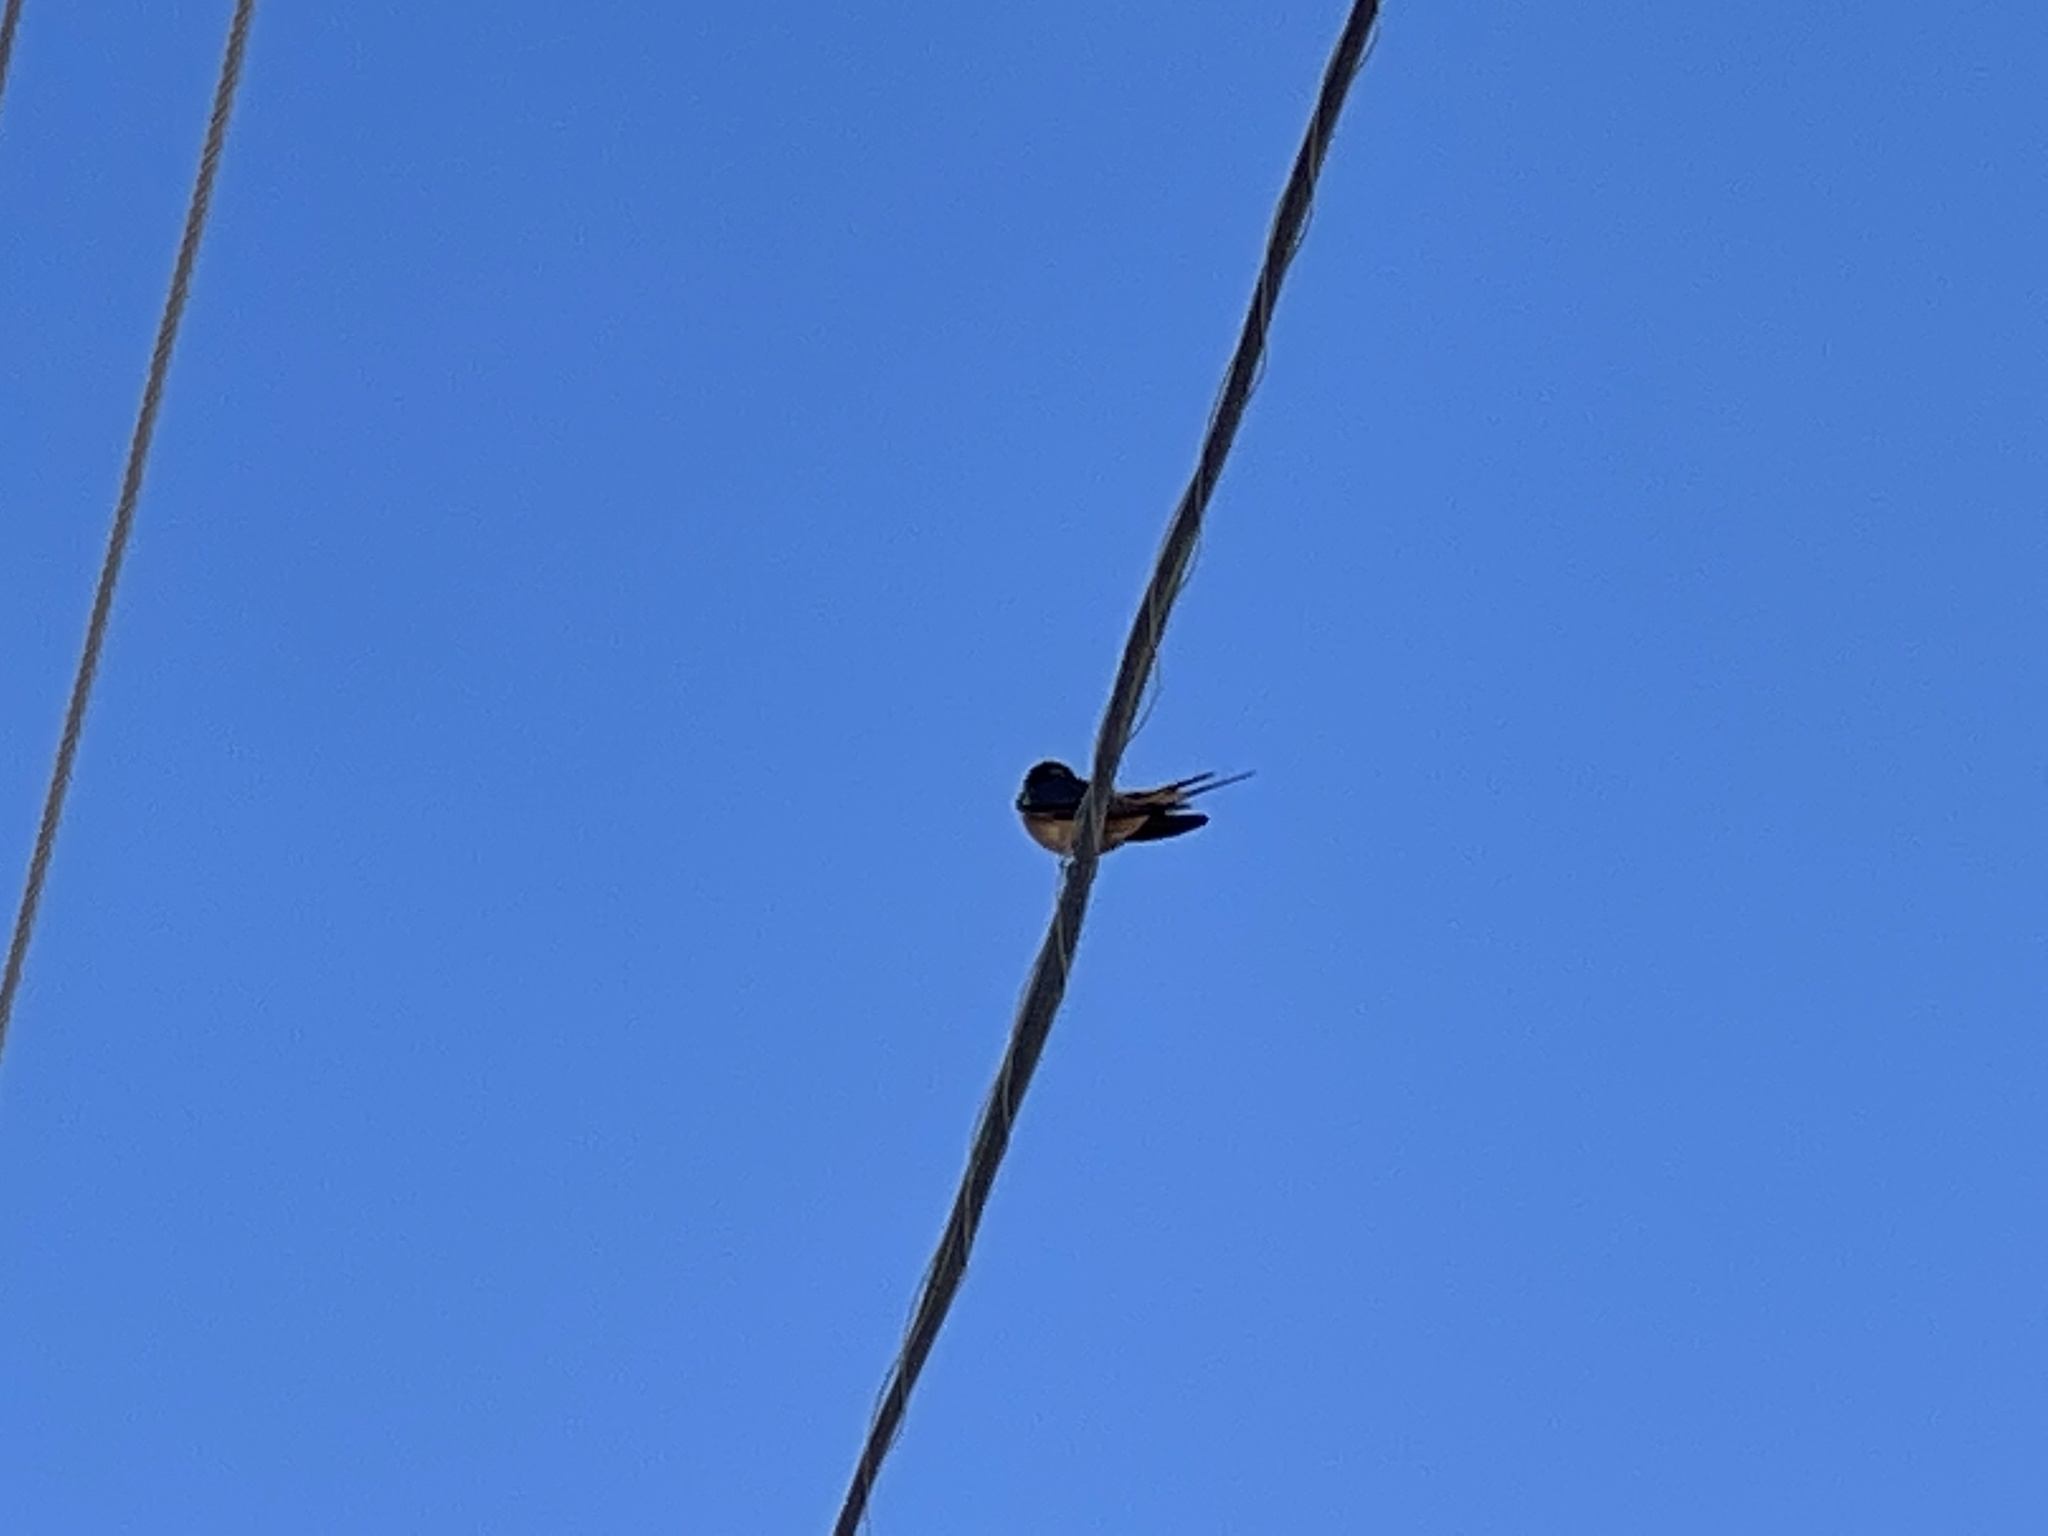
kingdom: Animalia
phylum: Chordata
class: Aves
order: Passeriformes
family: Hirundinidae
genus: Hirundo
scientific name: Hirundo rustica
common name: Barn swallow
